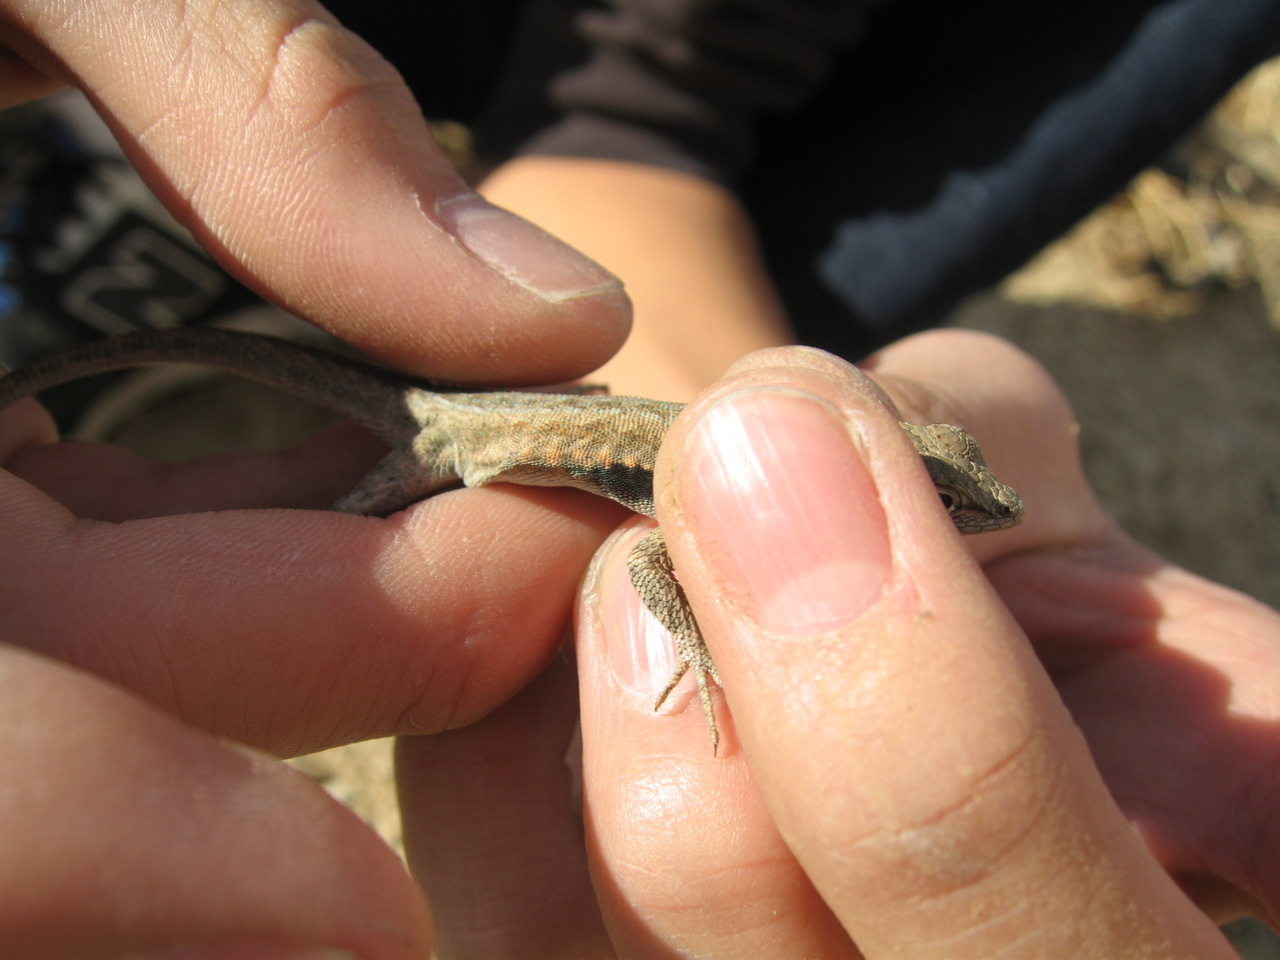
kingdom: Animalia
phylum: Chordata
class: Squamata
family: Phrynosomatidae
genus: Uta
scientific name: Uta stansburiana
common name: Side-blotched lizard
